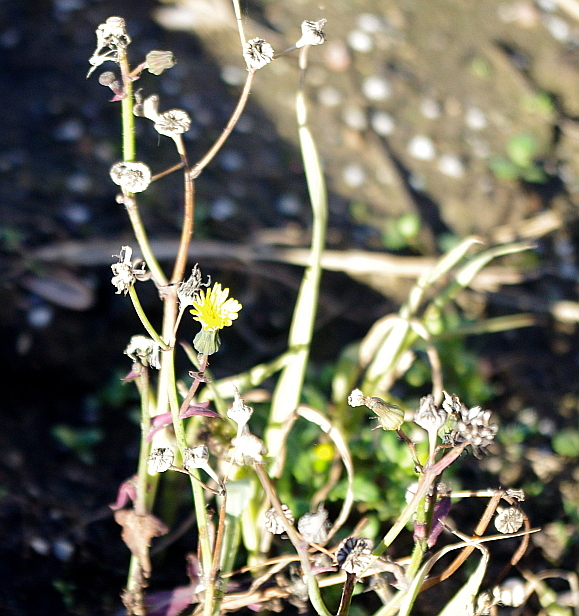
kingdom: Plantae
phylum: Tracheophyta
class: Magnoliopsida
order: Asterales
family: Asteraceae
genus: Sonchus
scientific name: Sonchus oleraceus
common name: Common sowthistle
